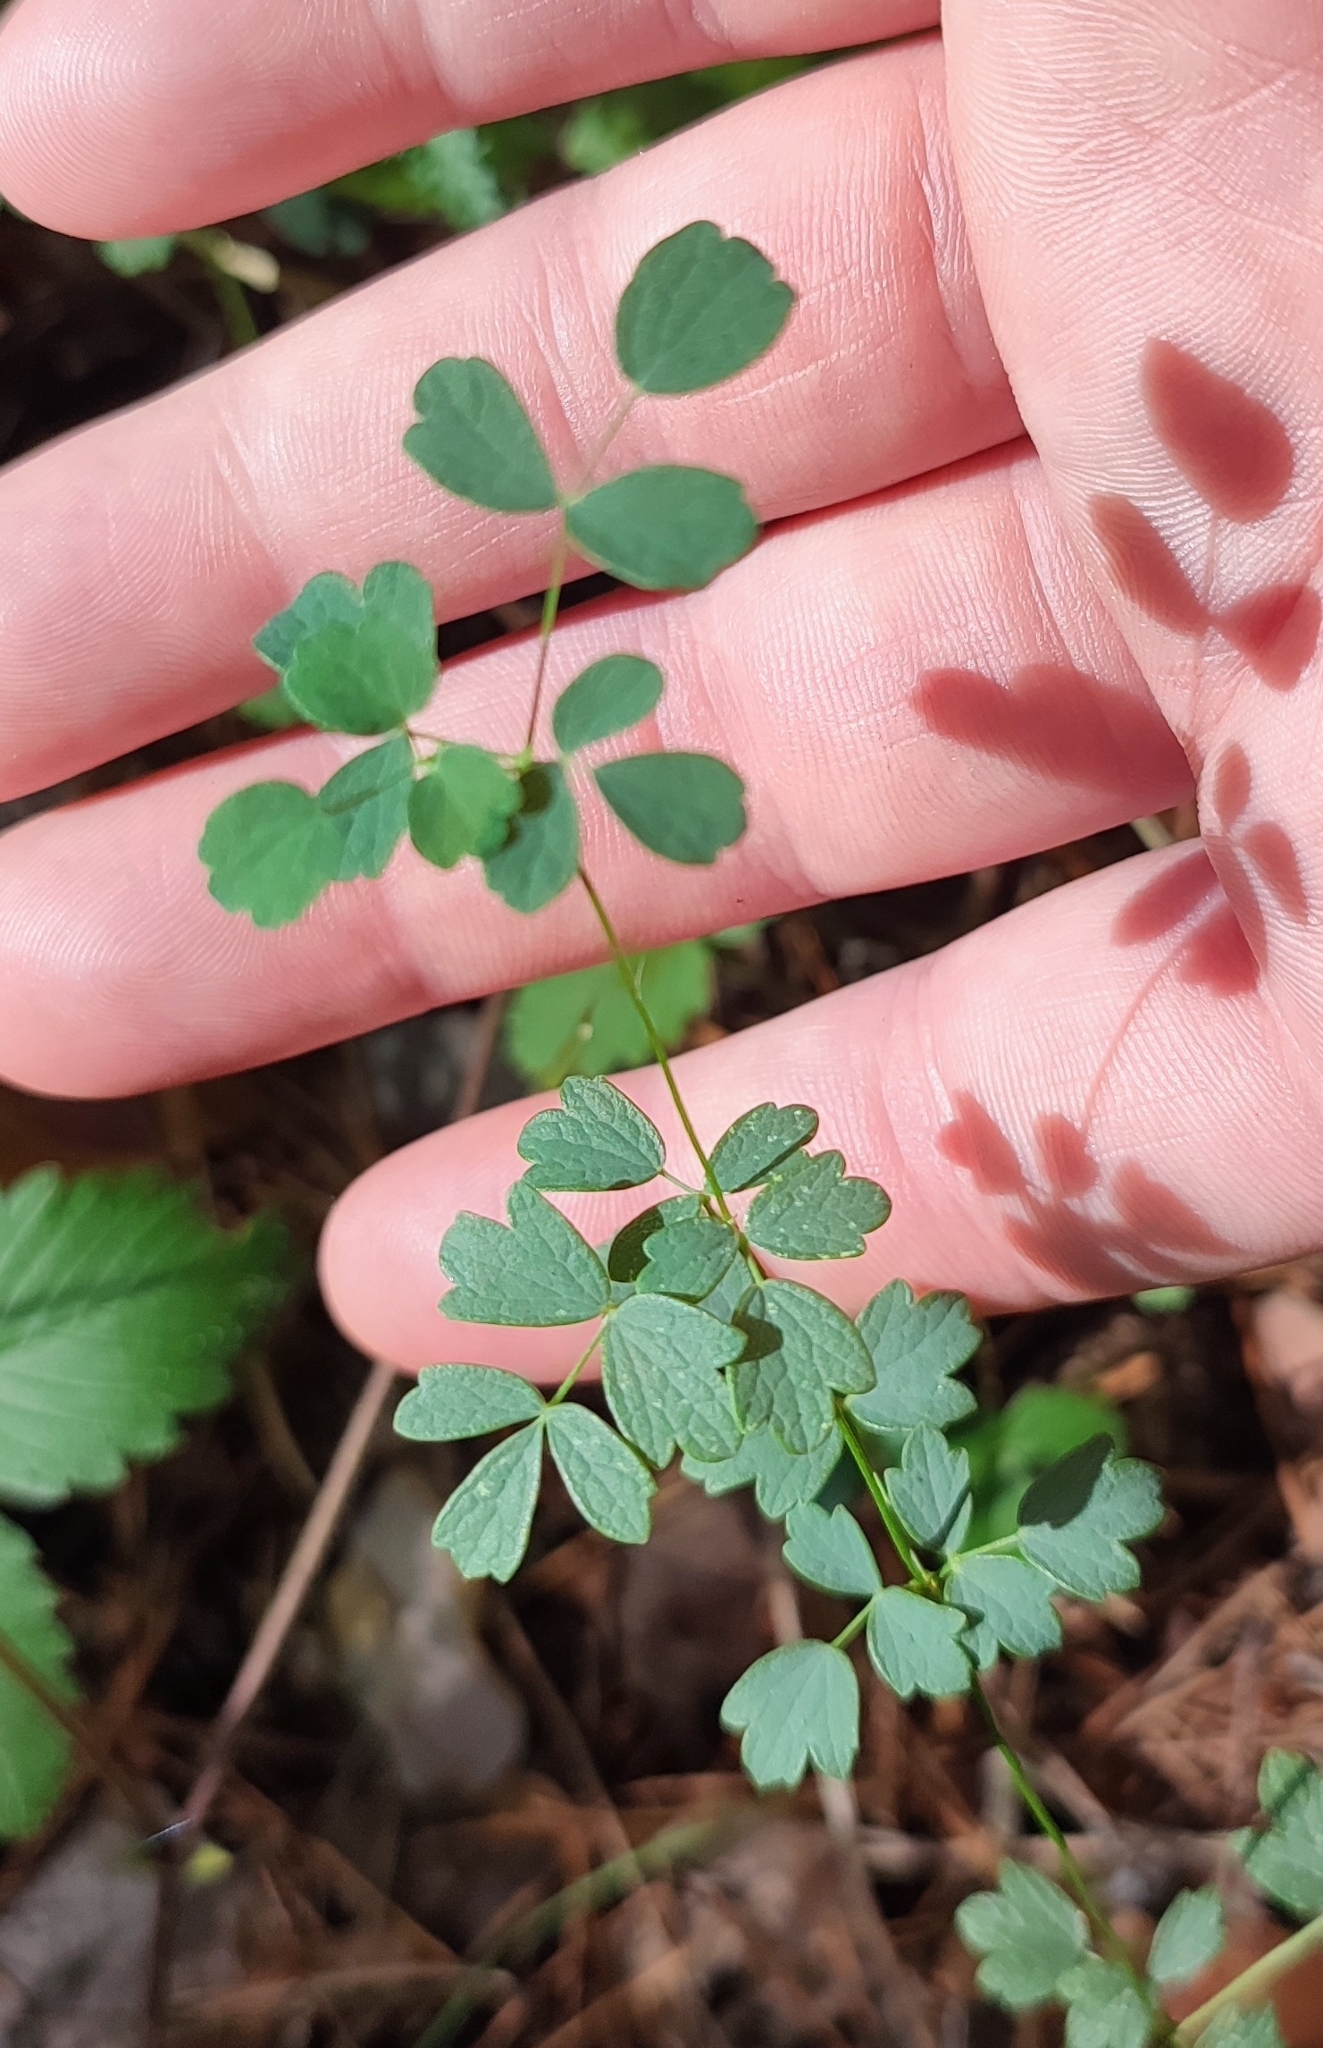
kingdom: Plantae
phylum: Tracheophyta
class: Magnoliopsida
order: Ranunculales
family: Ranunculaceae
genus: Thalictrum
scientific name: Thalictrum minus
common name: Lesser meadow-rue
